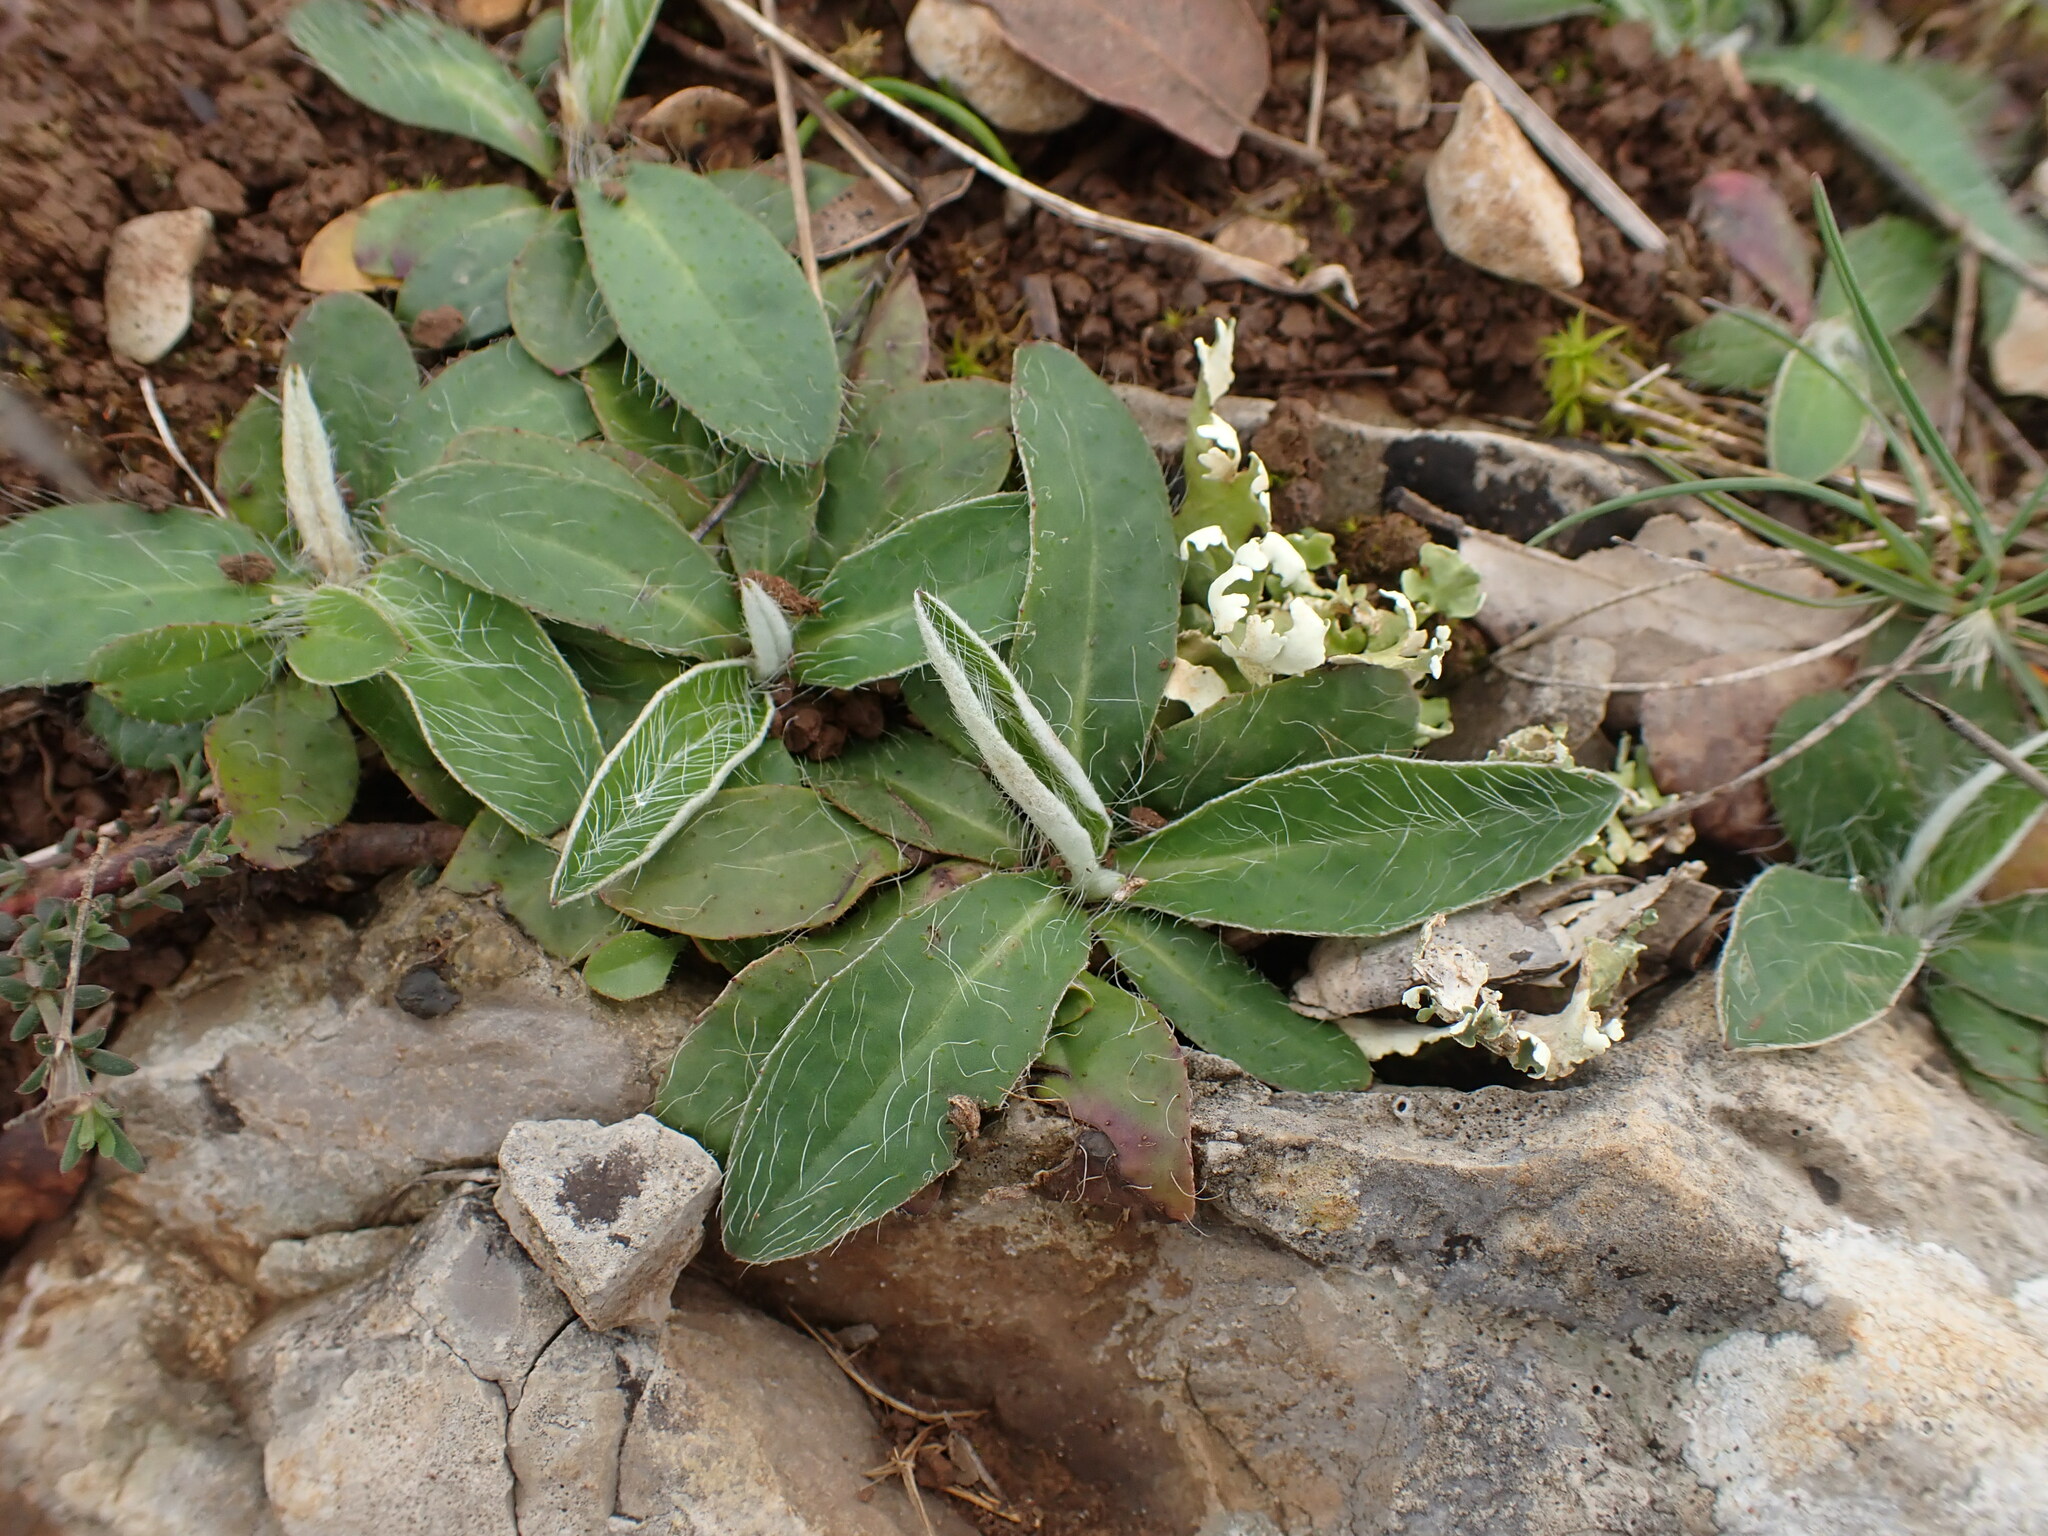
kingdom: Plantae
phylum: Tracheophyta
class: Magnoliopsida
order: Asterales
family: Asteraceae
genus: Pilosella
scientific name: Pilosella officinarum
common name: Mouse-ear hawkweed
